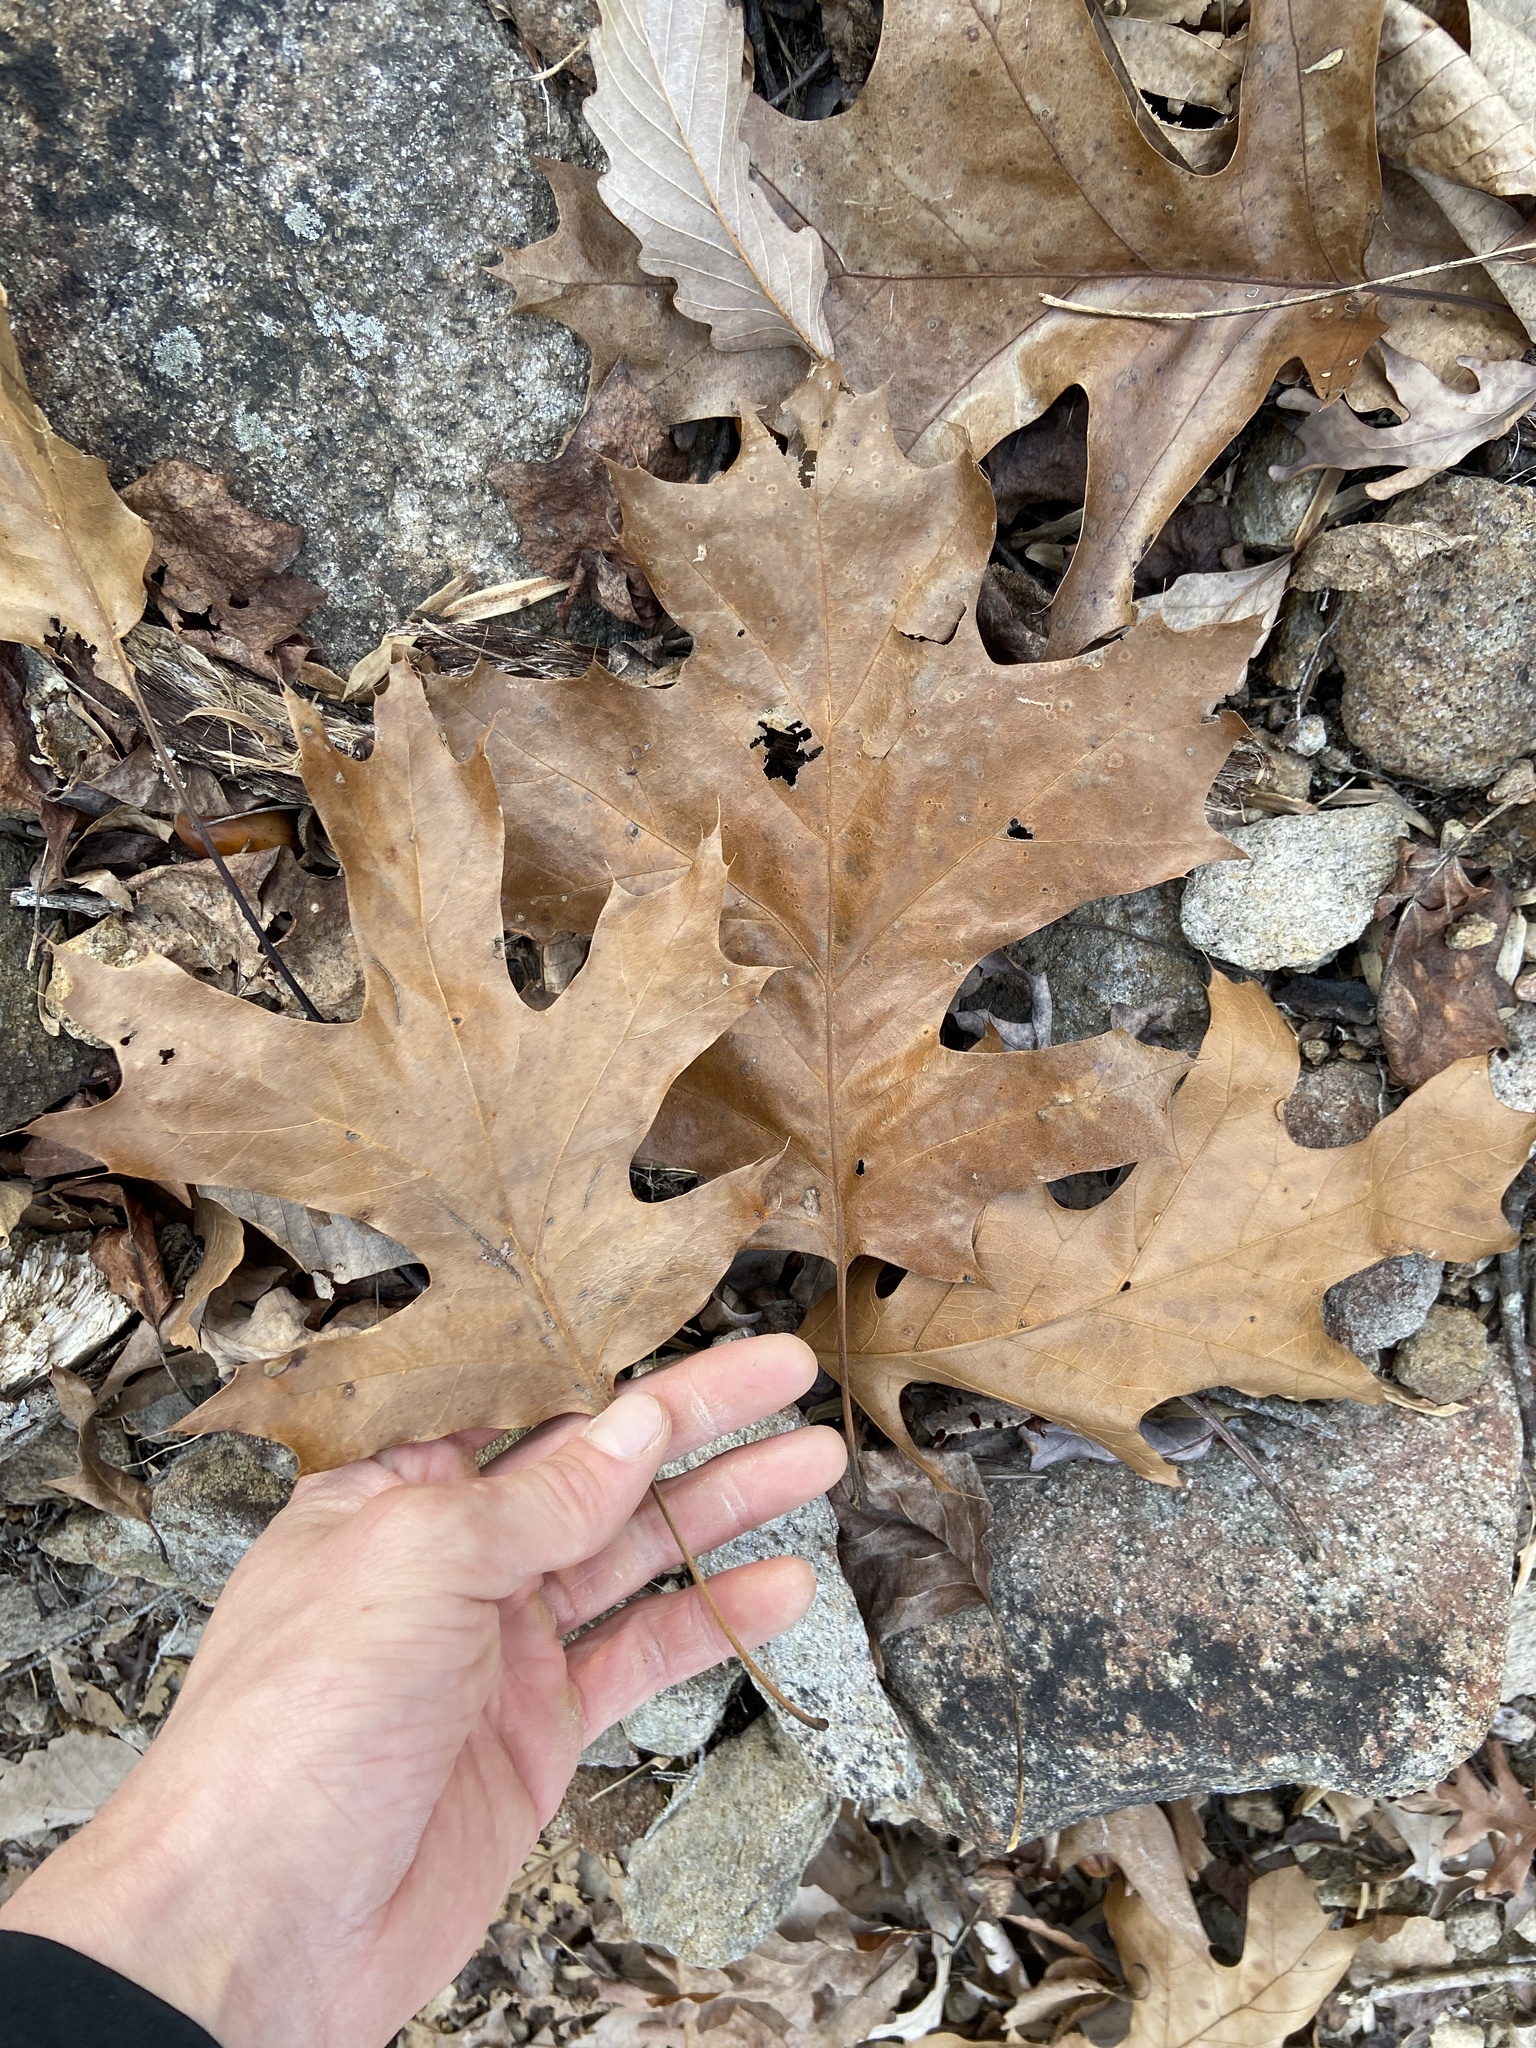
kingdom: Plantae
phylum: Tracheophyta
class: Magnoliopsida
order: Fagales
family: Fagaceae
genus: Quercus
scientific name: Quercus velutina
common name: Black oak
